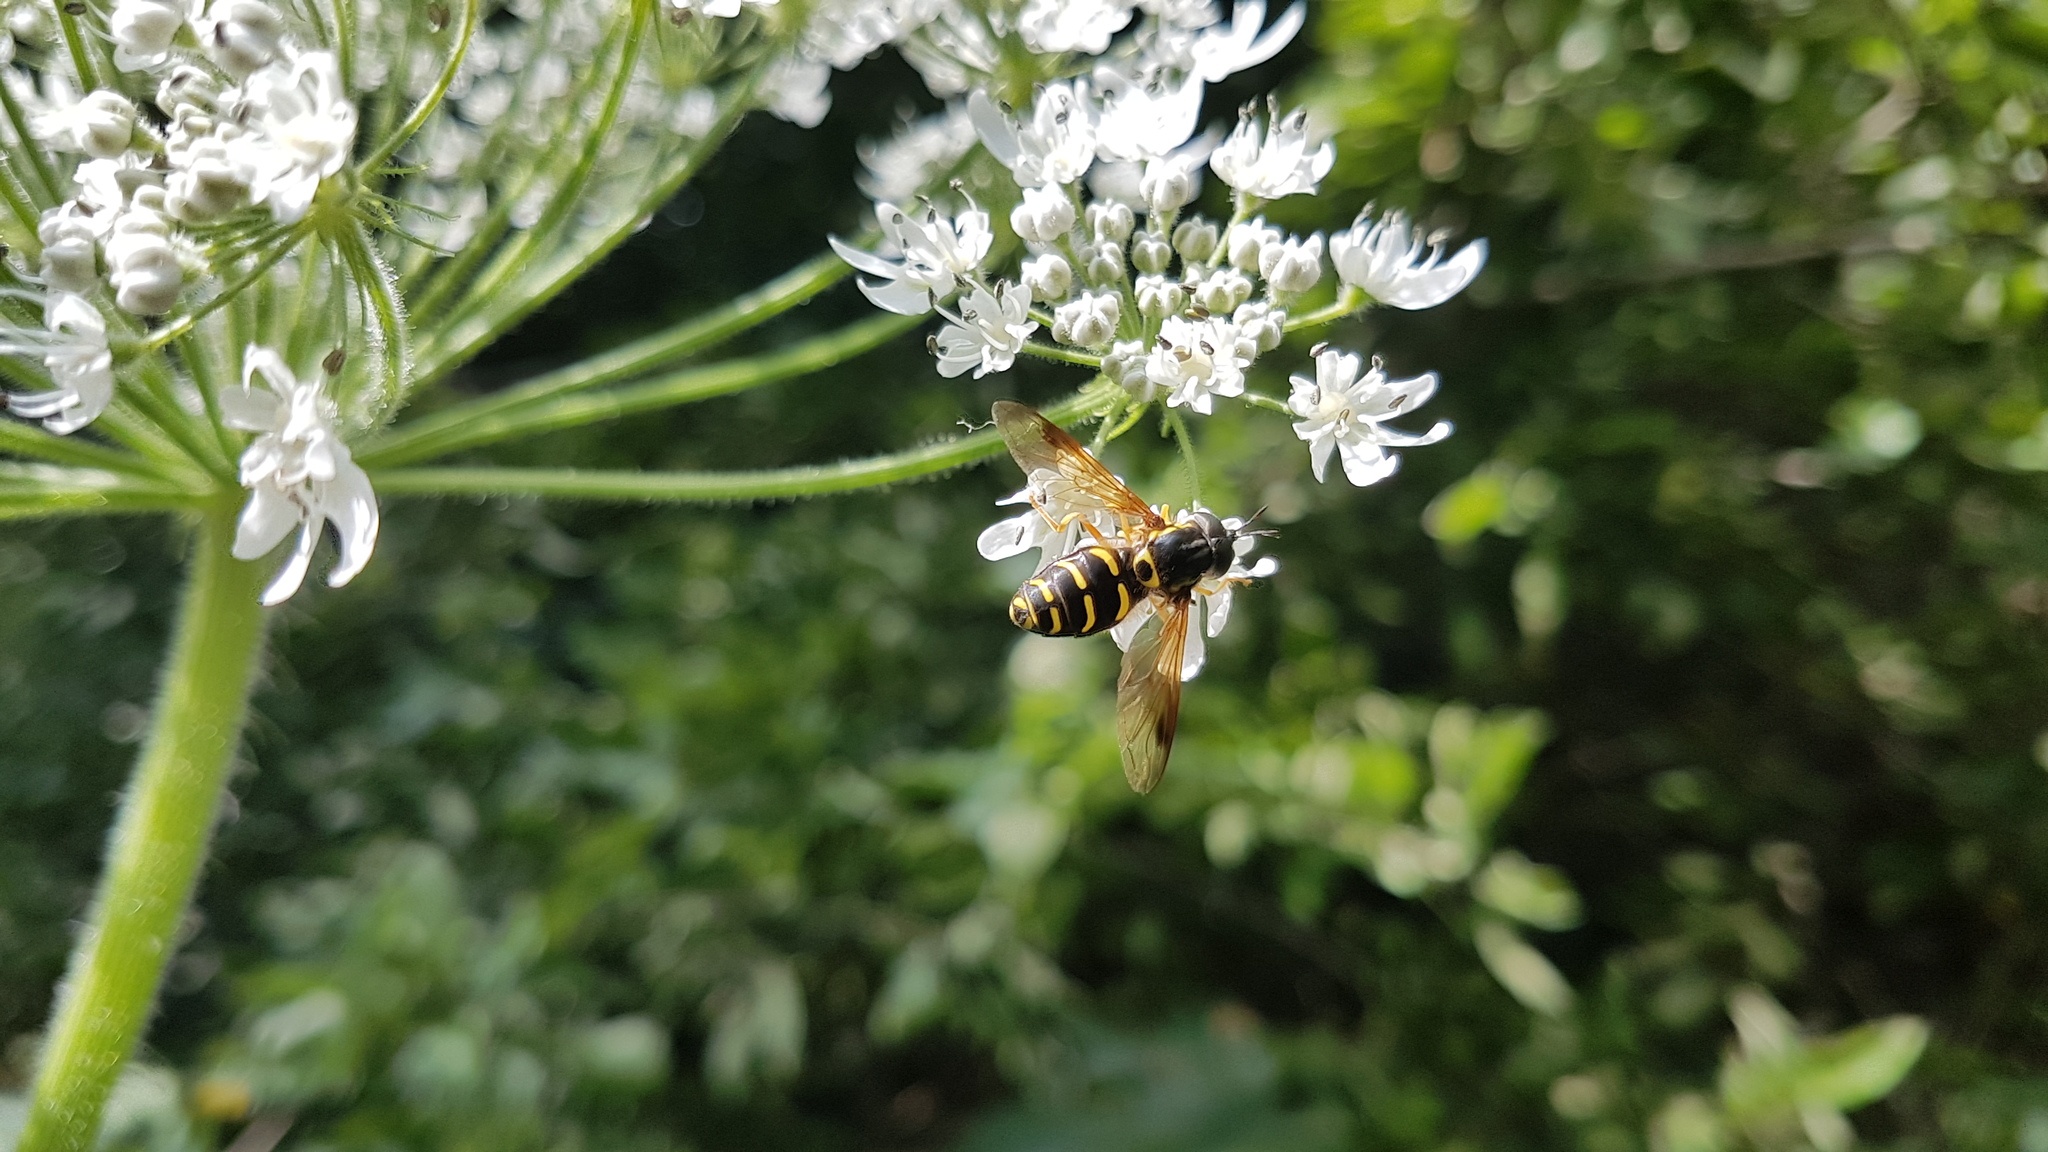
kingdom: Animalia
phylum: Arthropoda
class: Insecta
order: Diptera
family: Syrphidae
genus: Chrysotoxum
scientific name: Chrysotoxum festivum
